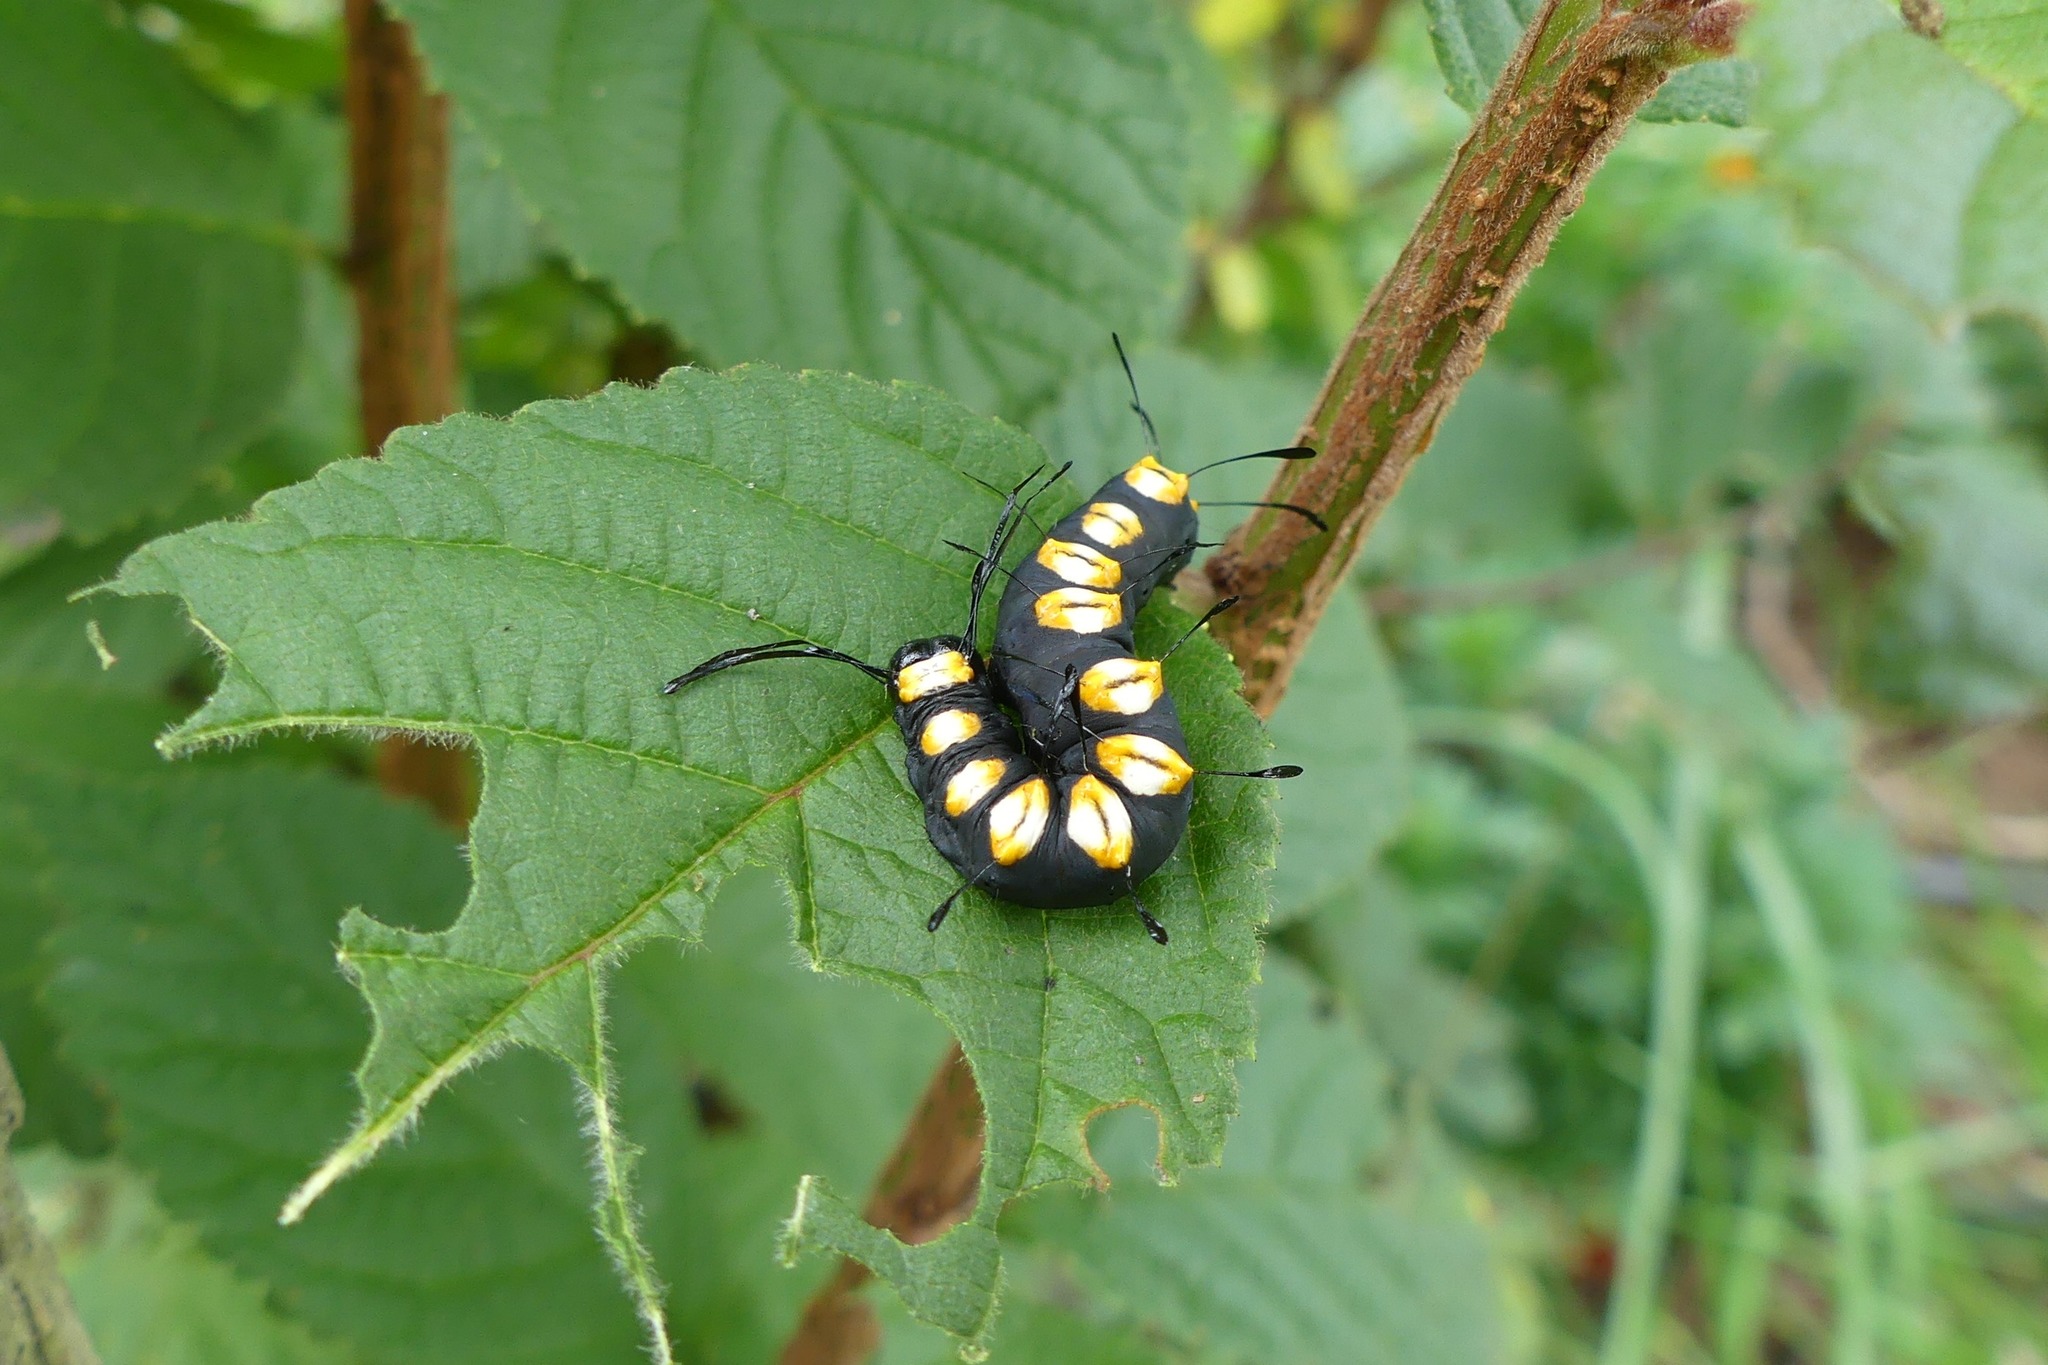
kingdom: Animalia
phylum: Arthropoda
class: Insecta
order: Lepidoptera
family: Noctuidae
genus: Acronicta
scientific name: Acronicta funeralis
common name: Funerary dagger
